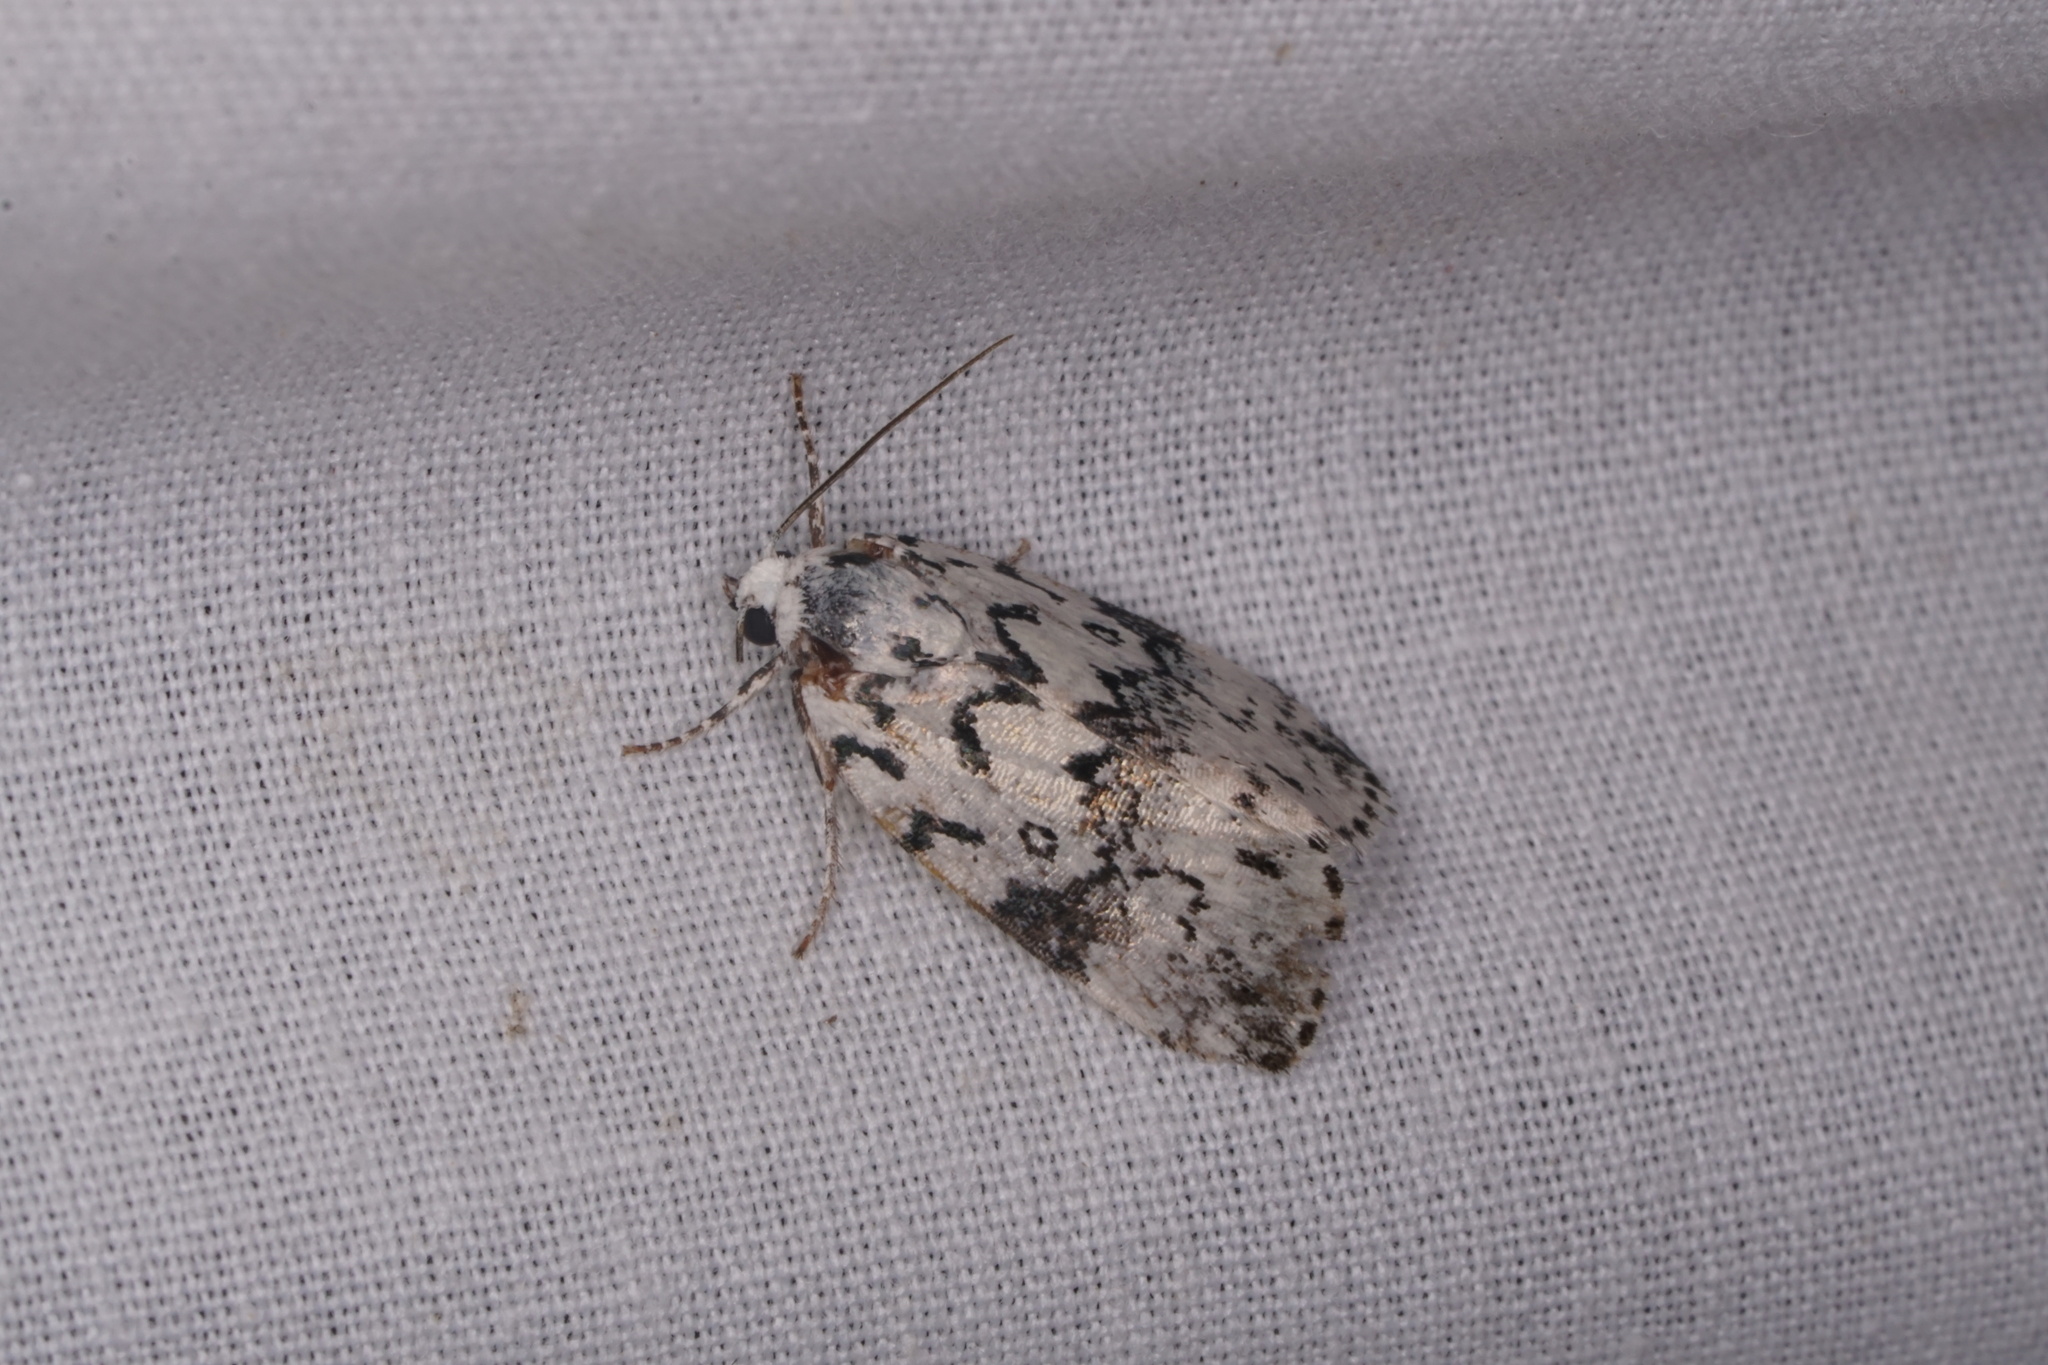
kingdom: Animalia
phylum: Arthropoda
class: Insecta
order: Lepidoptera
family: Noctuidae
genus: Polygrammate
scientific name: Polygrammate hebraeicum
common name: Hebrew moth
